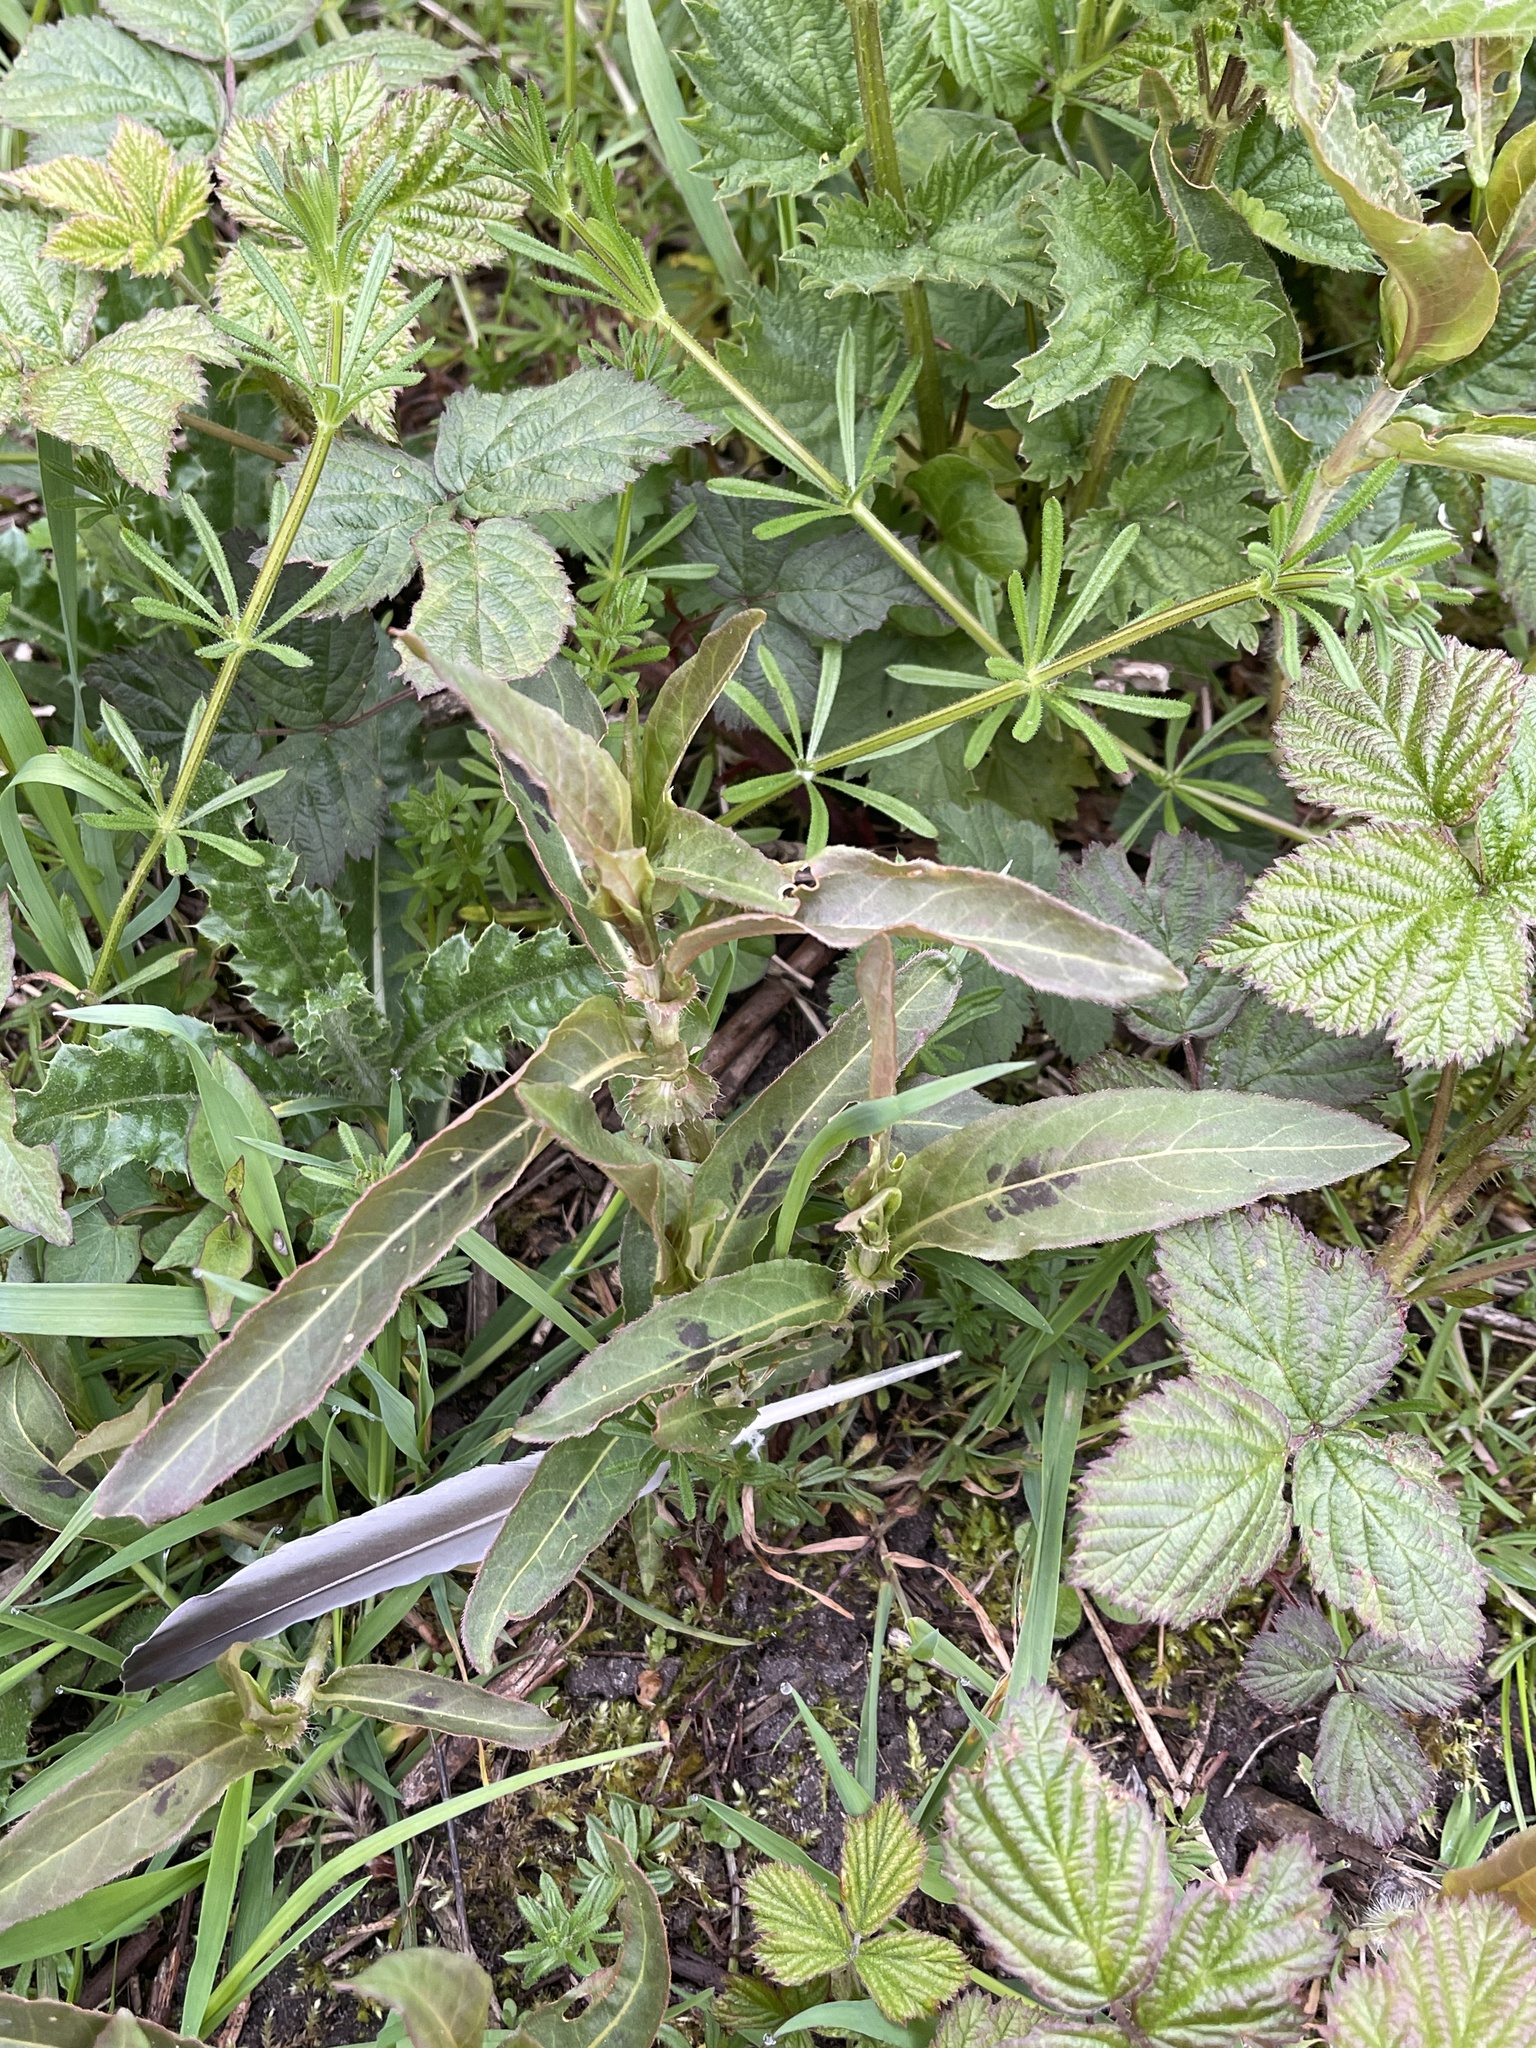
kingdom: Plantae
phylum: Tracheophyta
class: Magnoliopsida
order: Caryophyllales
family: Polygonaceae
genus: Persicaria
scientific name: Persicaria amphibia
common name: Amphibious bistort
